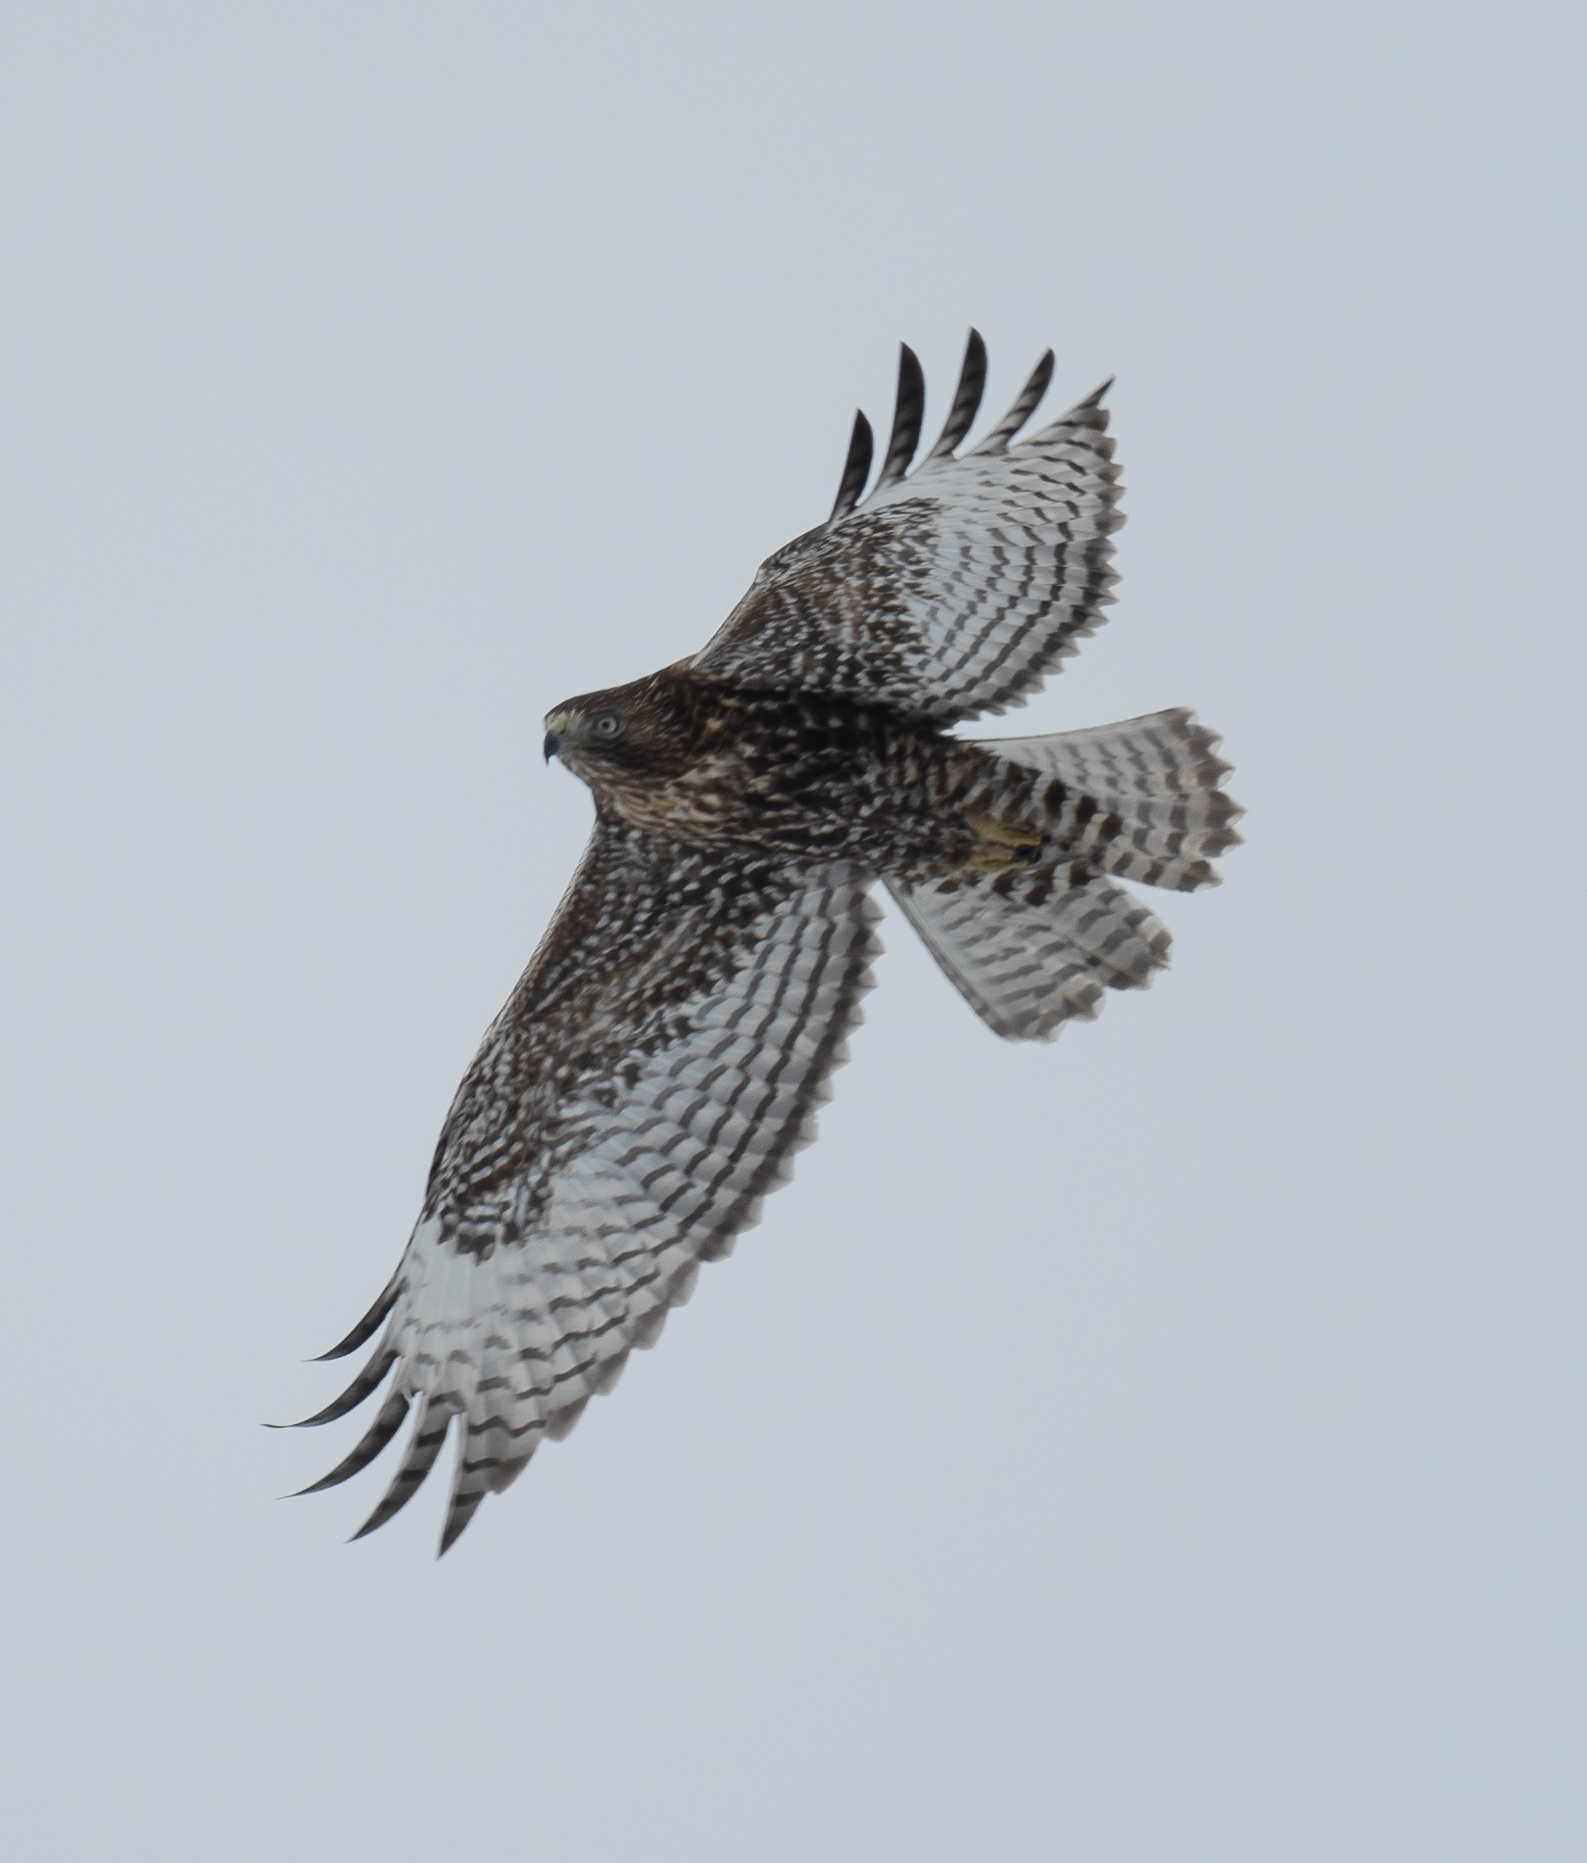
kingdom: Animalia
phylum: Chordata
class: Aves
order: Accipitriformes
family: Accipitridae
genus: Buteo
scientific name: Buteo jamaicensis
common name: Red-tailed hawk
